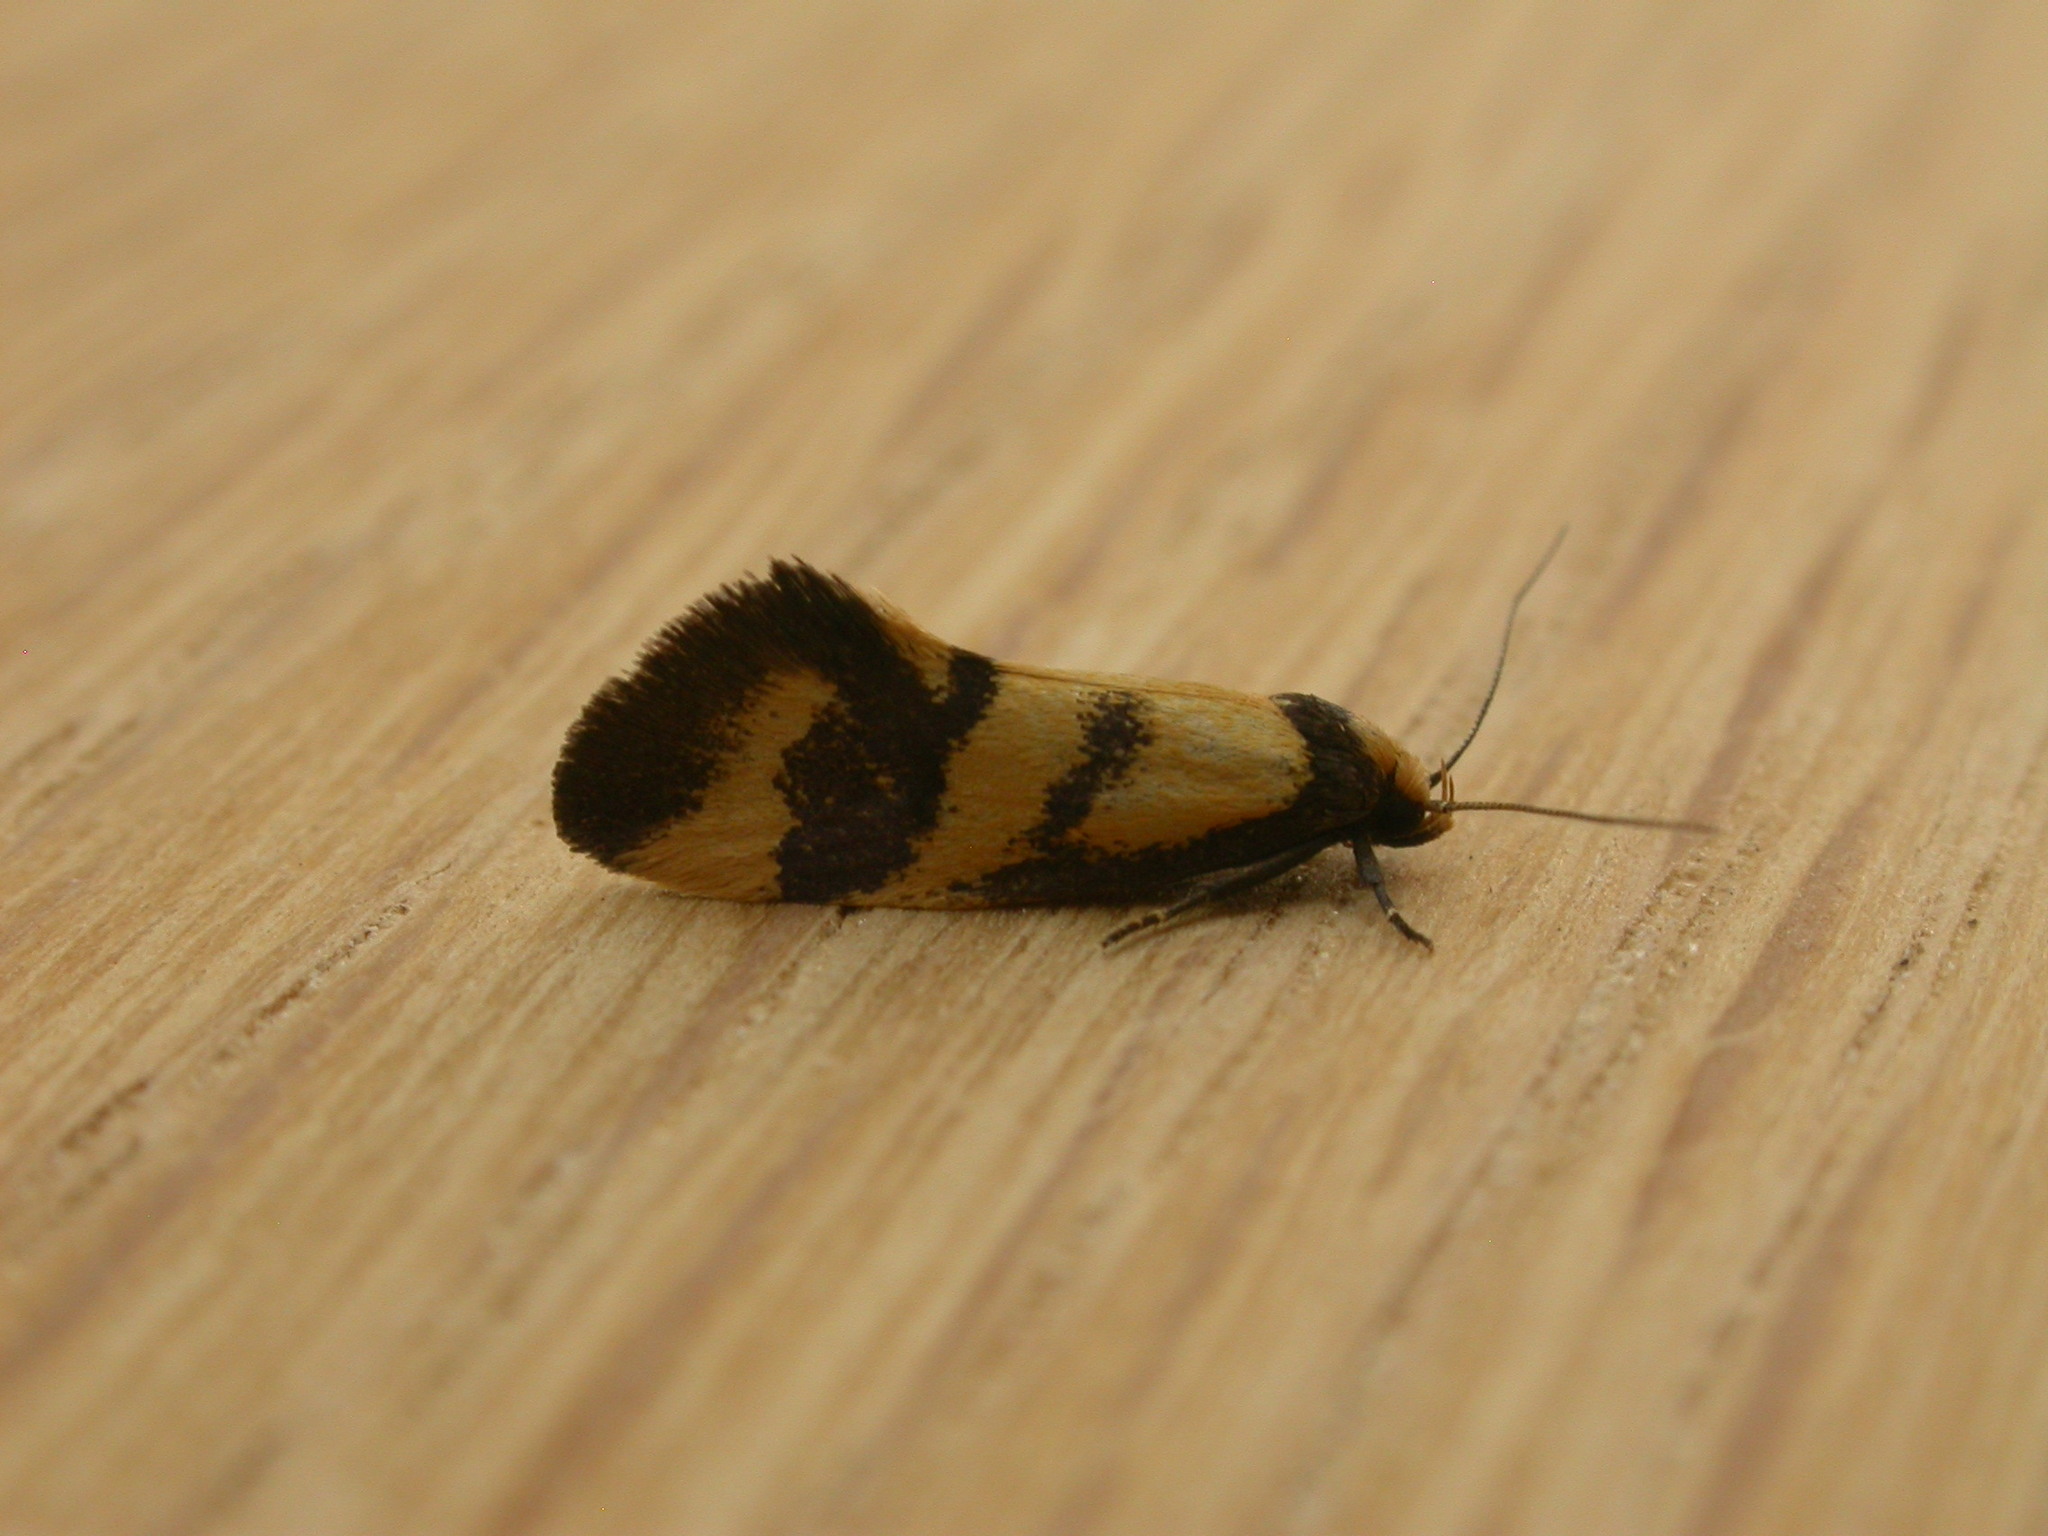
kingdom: Animalia
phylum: Arthropoda
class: Insecta
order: Lepidoptera
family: Oecophoridae
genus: Olbonoma
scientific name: Olbonoma triptycha
